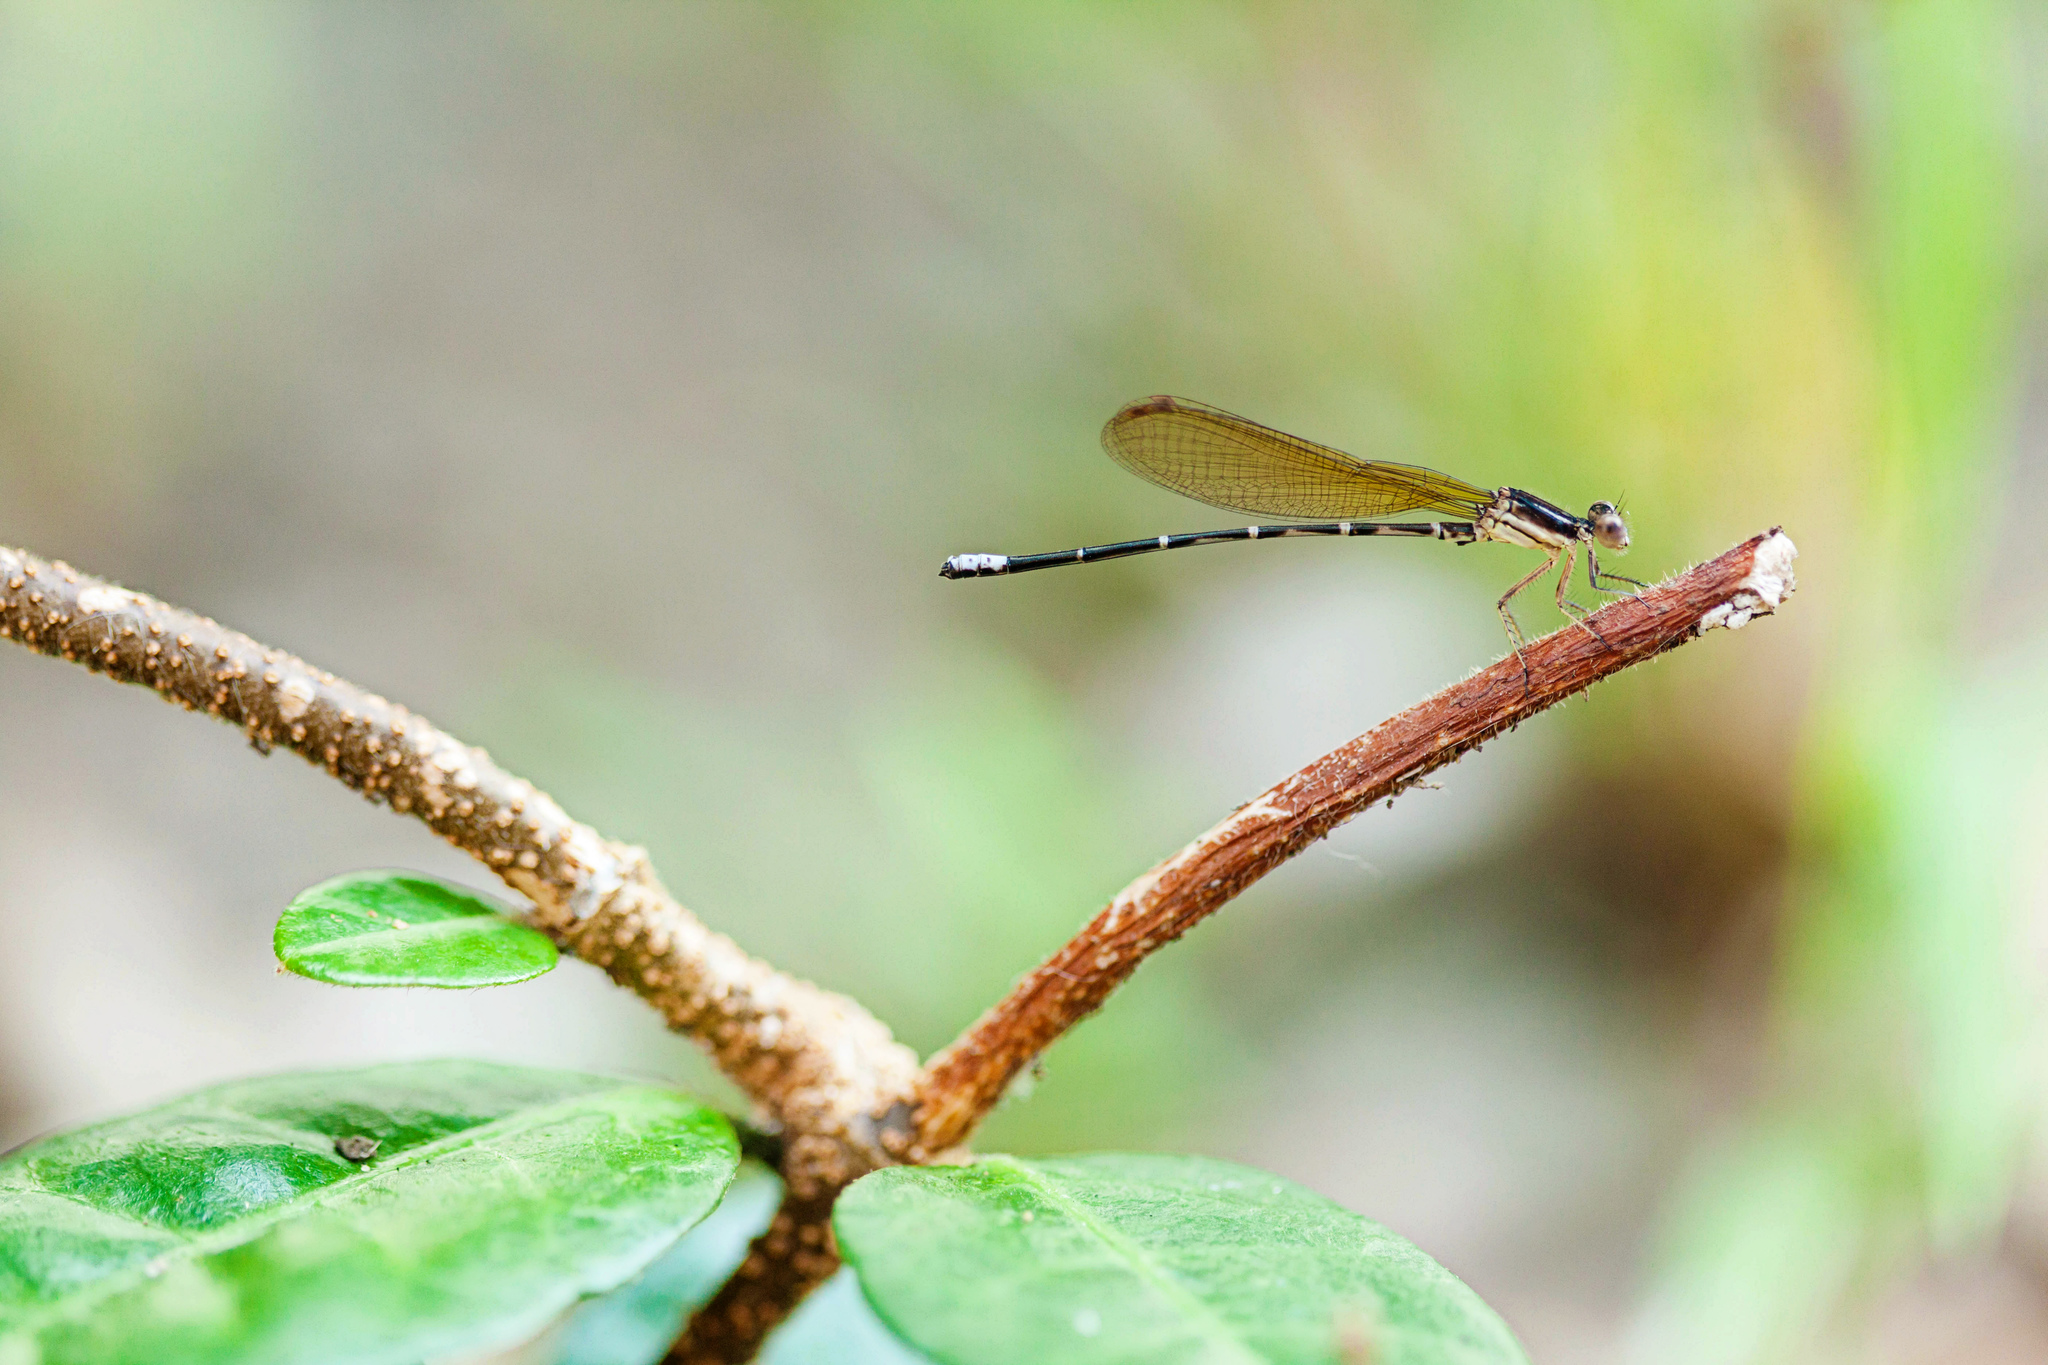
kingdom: Animalia
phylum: Arthropoda
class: Insecta
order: Odonata
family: Coenagrionidae
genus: Argia
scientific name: Argia sedula
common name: Blue-ringed dancer
